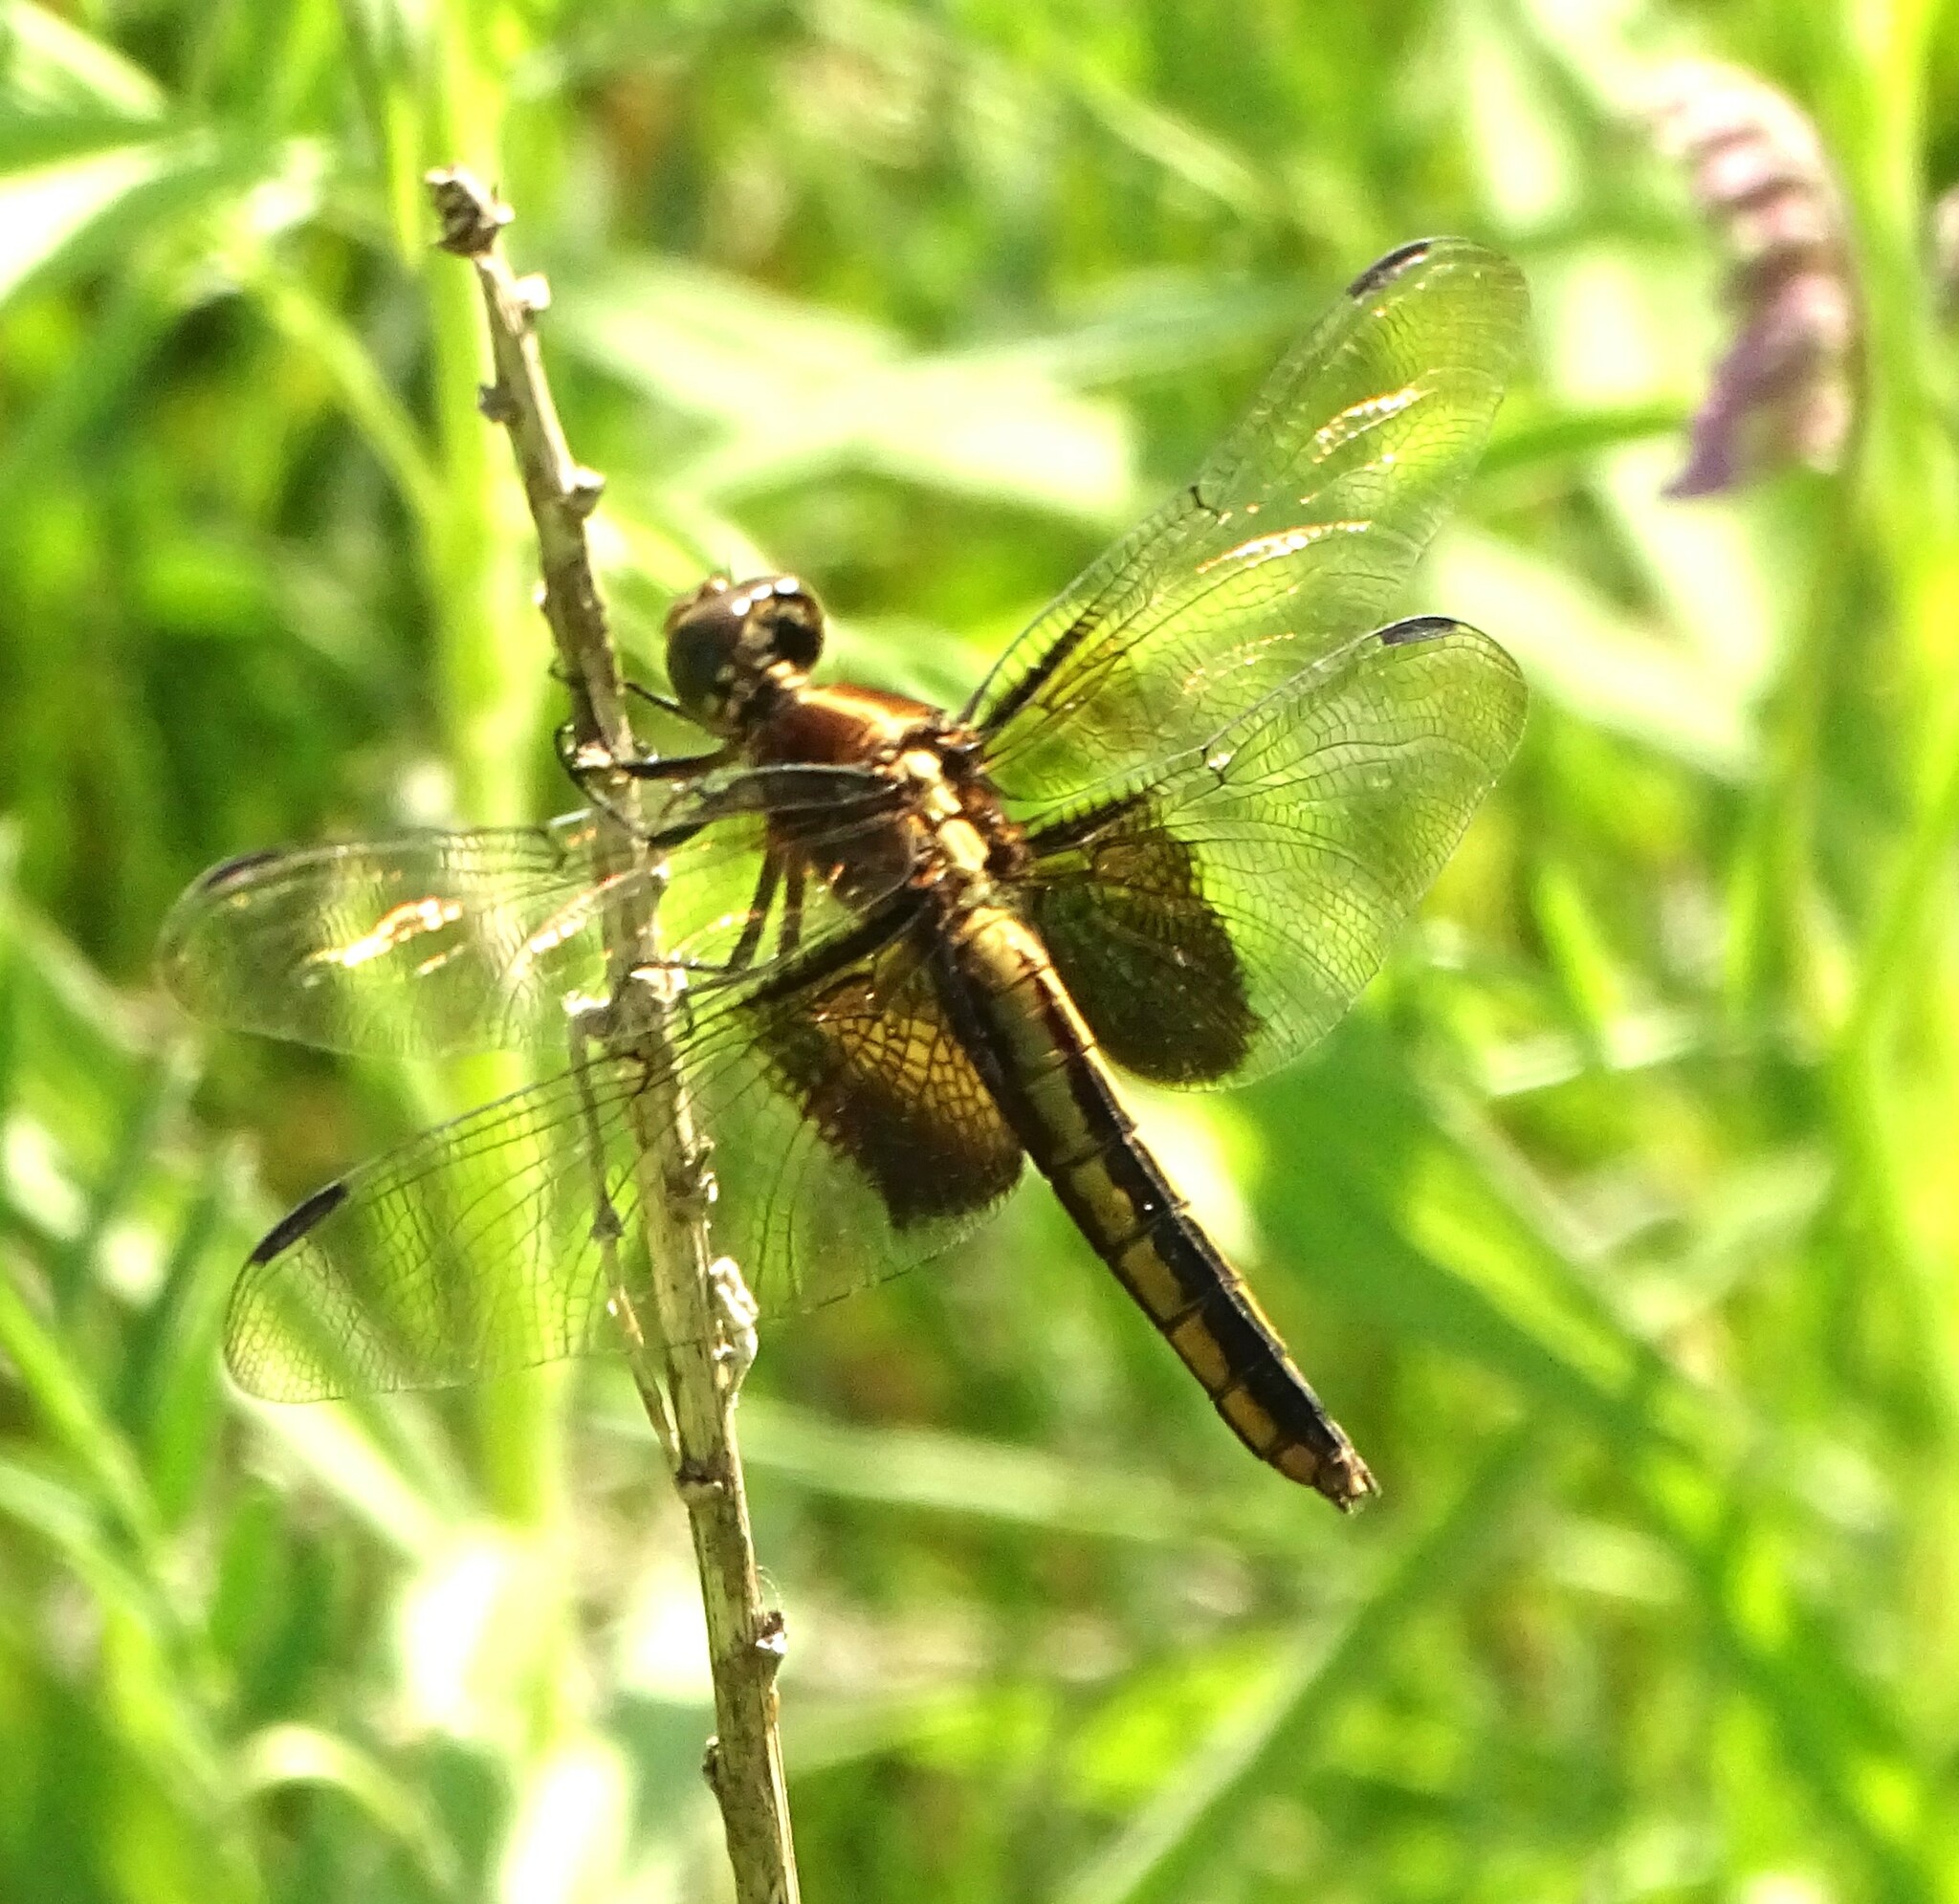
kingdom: Animalia
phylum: Arthropoda
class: Insecta
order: Odonata
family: Libellulidae
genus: Libellula
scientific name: Libellula luctuosa
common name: Widow skimmer
